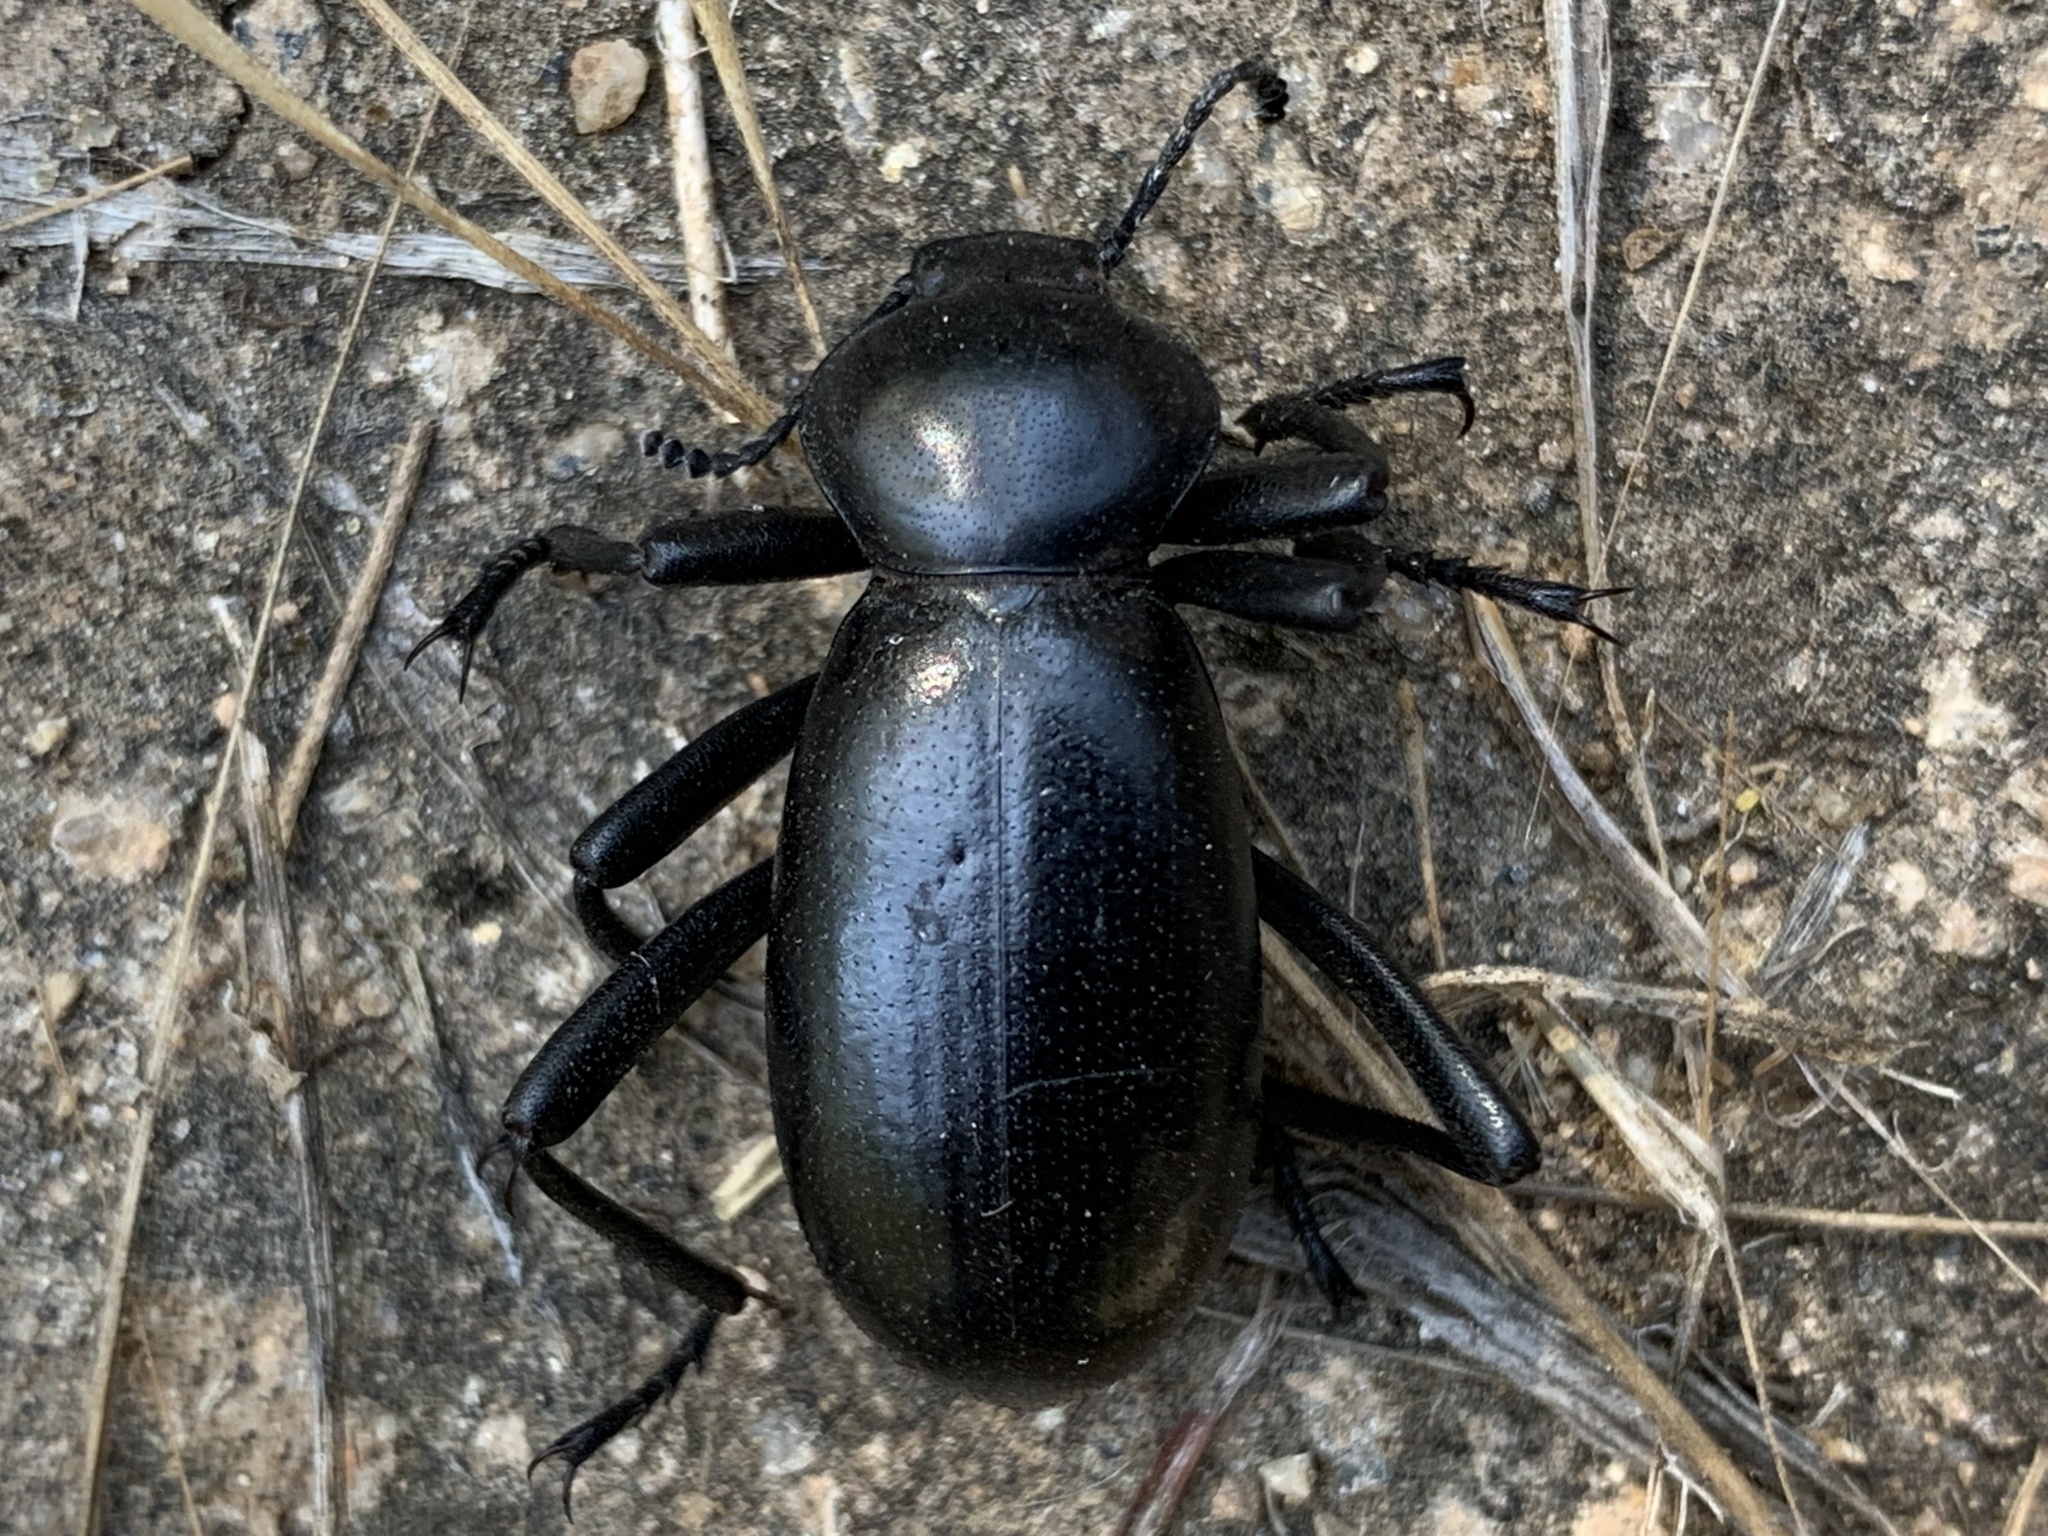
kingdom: Animalia
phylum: Arthropoda
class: Insecta
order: Coleoptera
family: Tenebrionidae
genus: Eleodes
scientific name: Eleodes grandicollis
